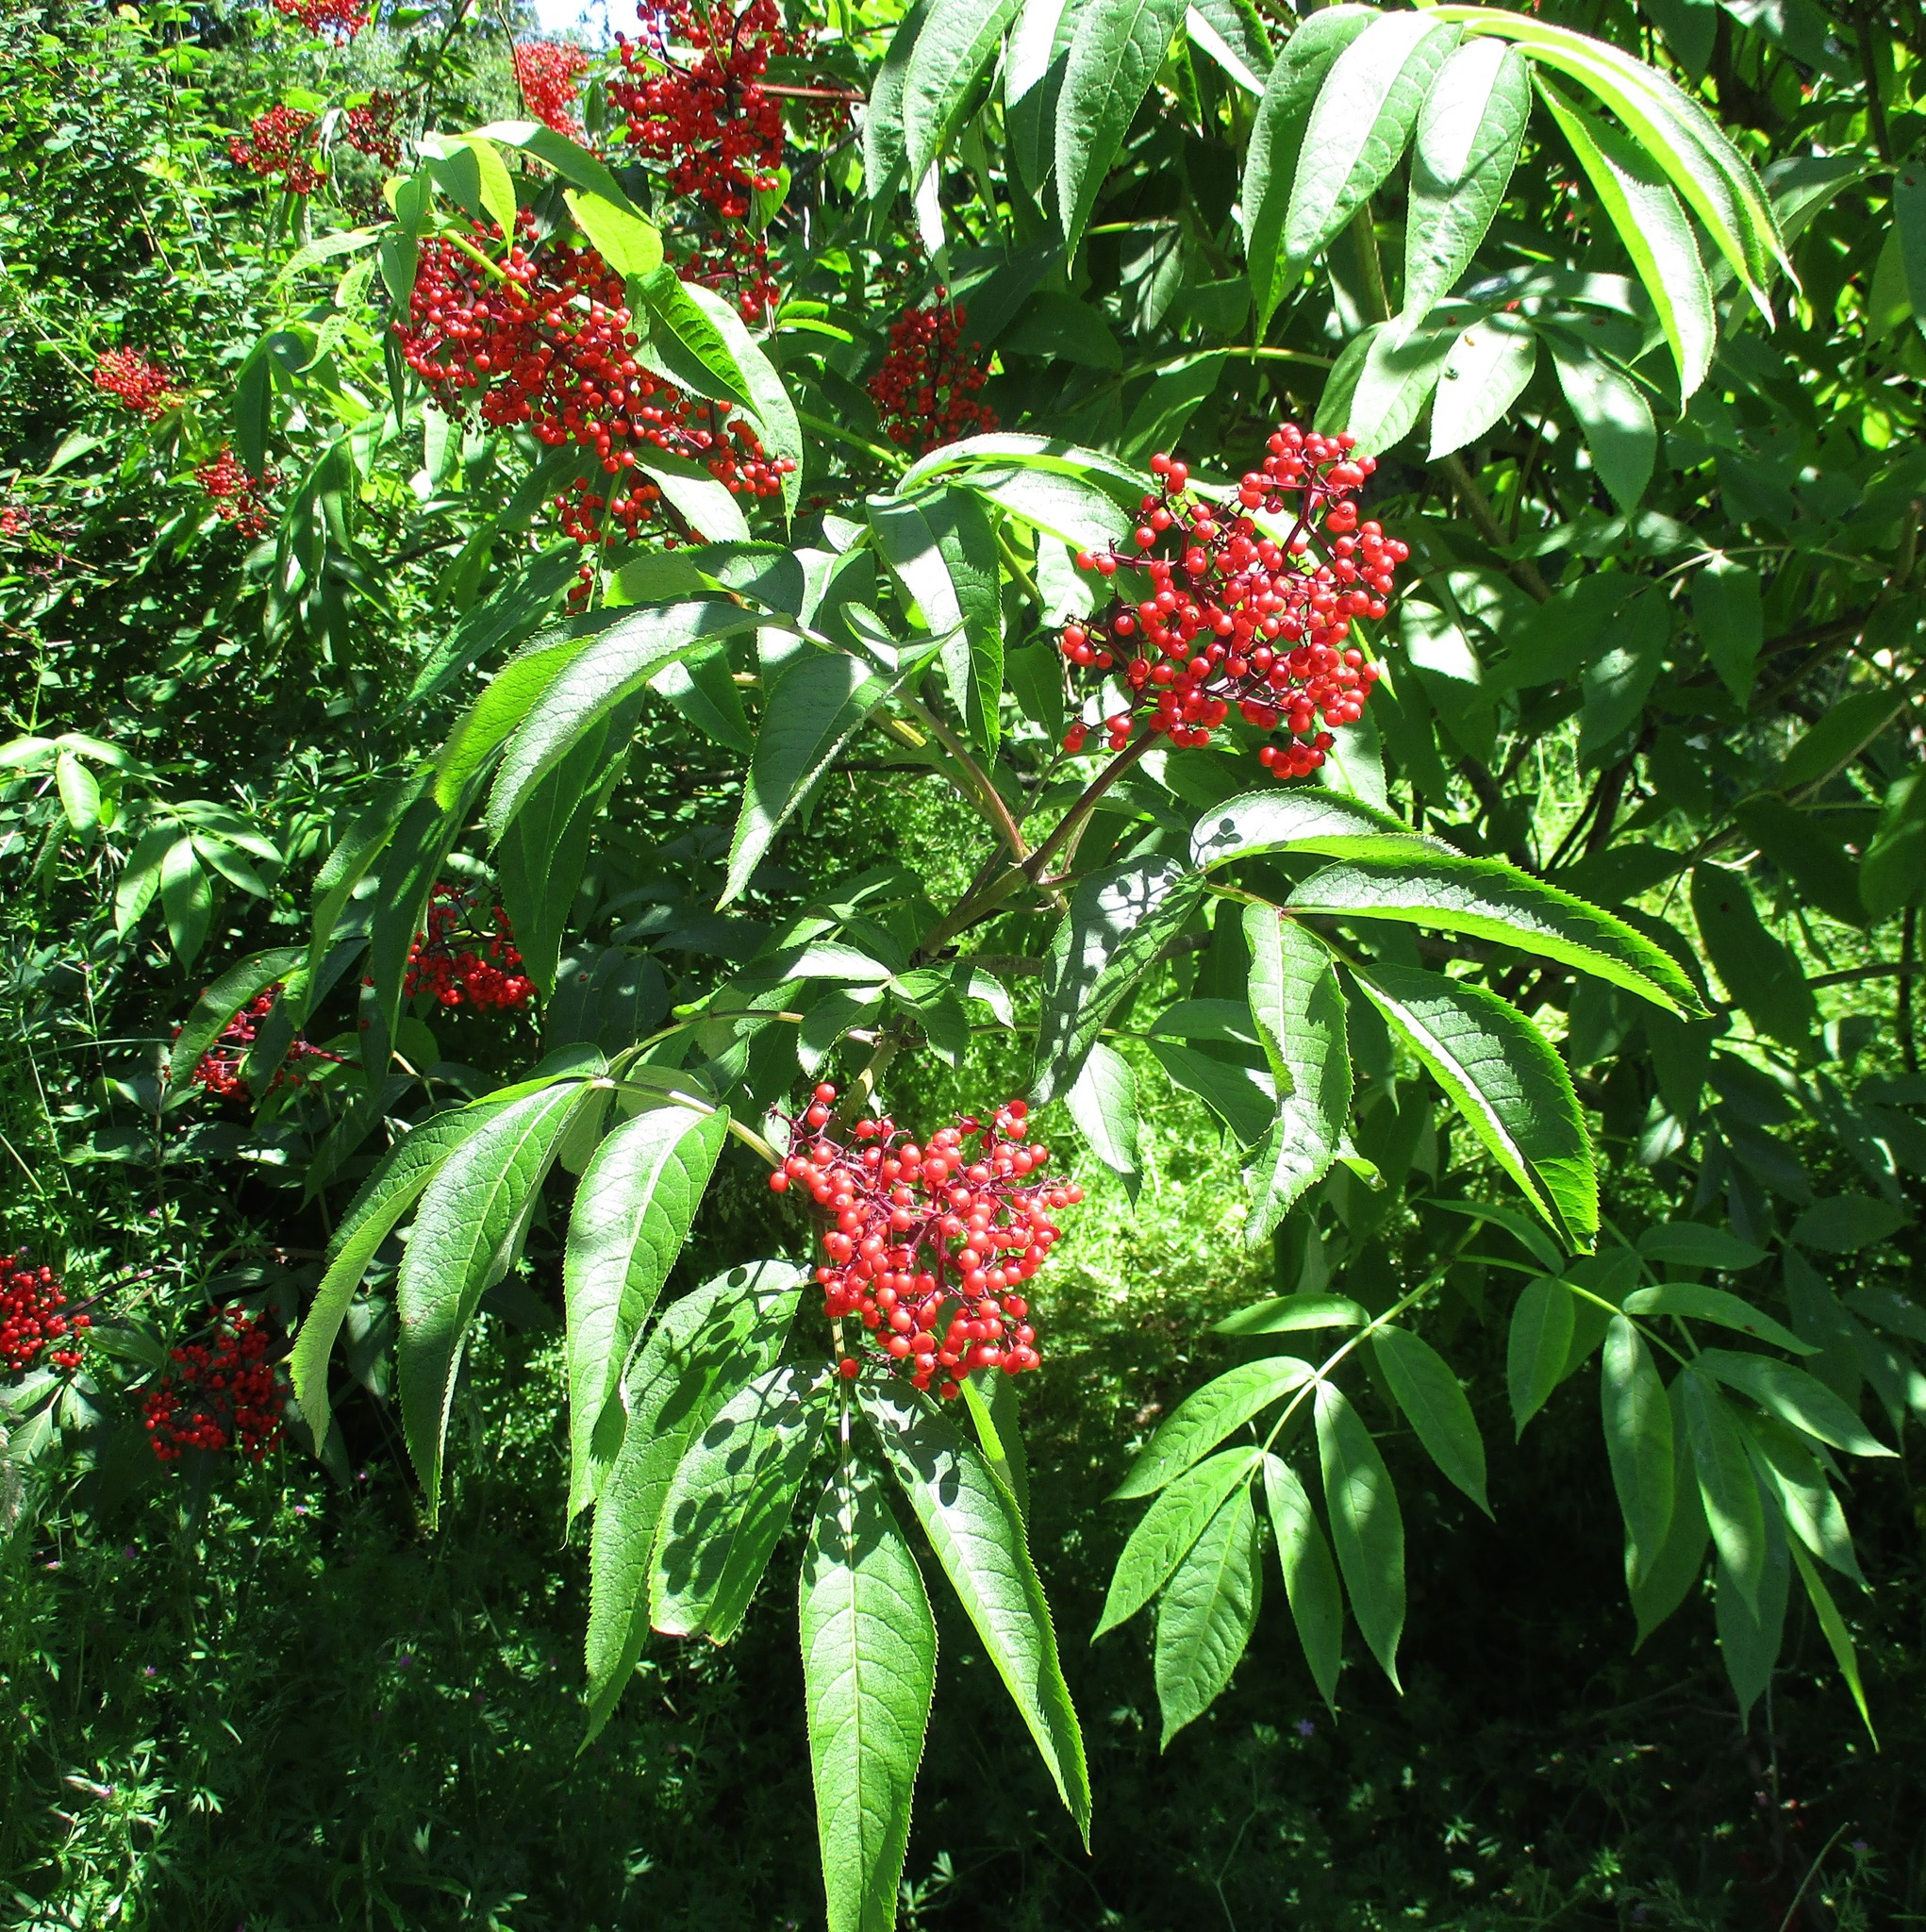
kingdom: Plantae
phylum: Tracheophyta
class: Magnoliopsida
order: Dipsacales
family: Viburnaceae
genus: Sambucus
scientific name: Sambucus racemosa
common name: Red-berried elder
